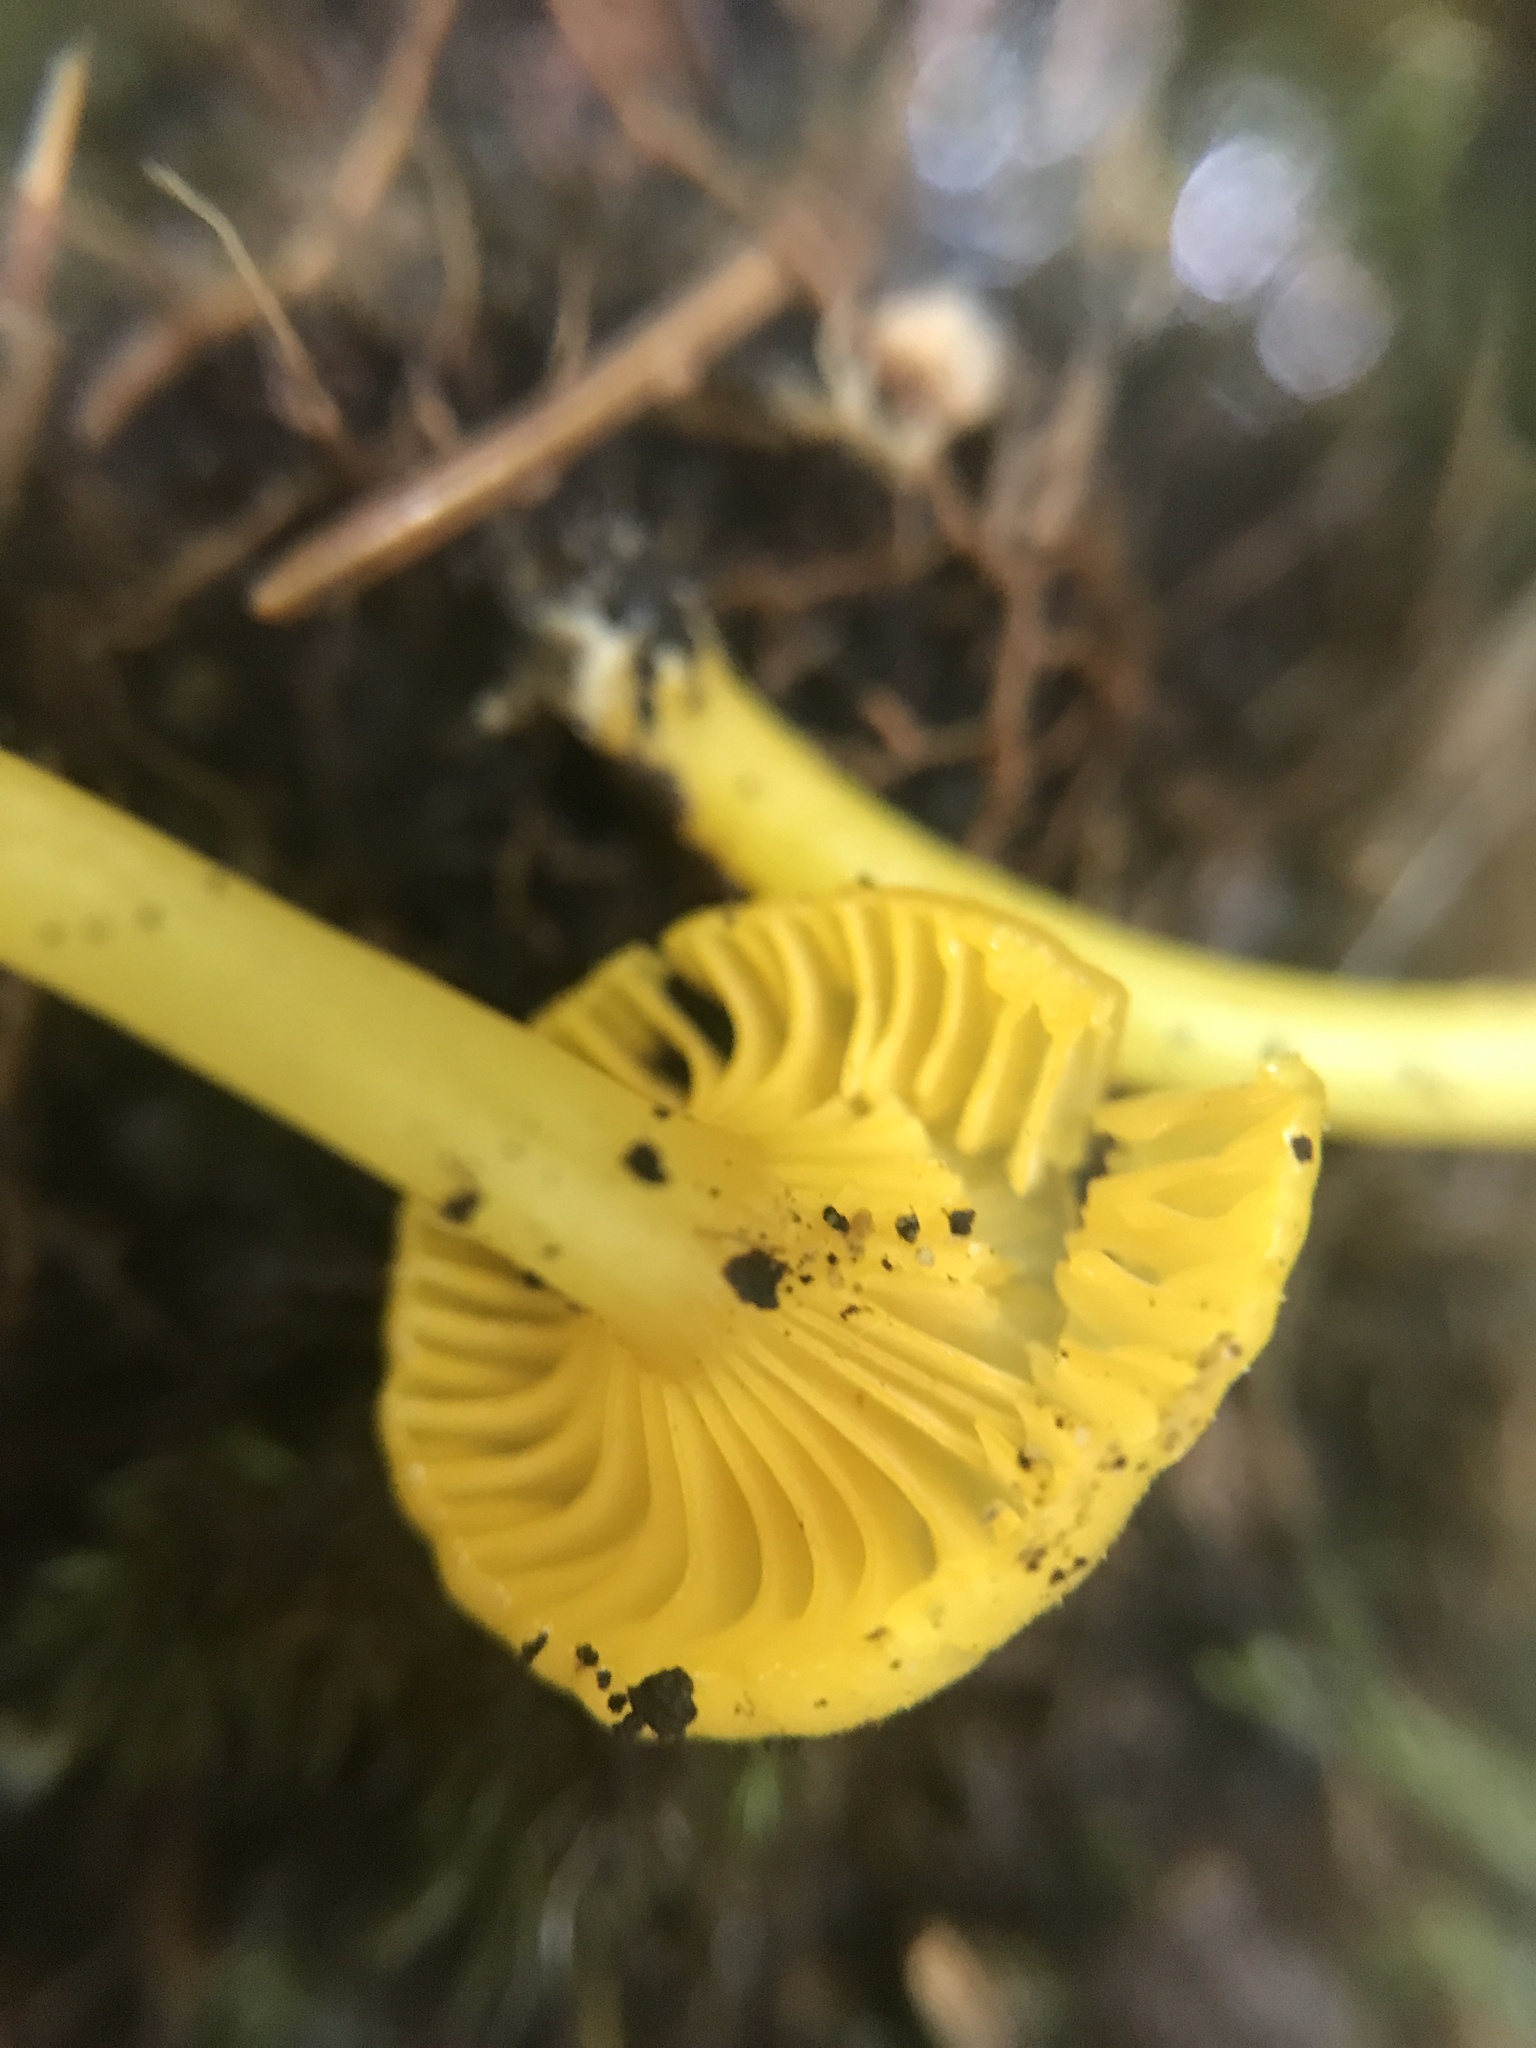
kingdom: Fungi
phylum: Basidiomycota
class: Agaricomycetes
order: Agaricales
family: Hygrophoraceae
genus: Gloioxanthomyces
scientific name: Gloioxanthomyces nitidus
